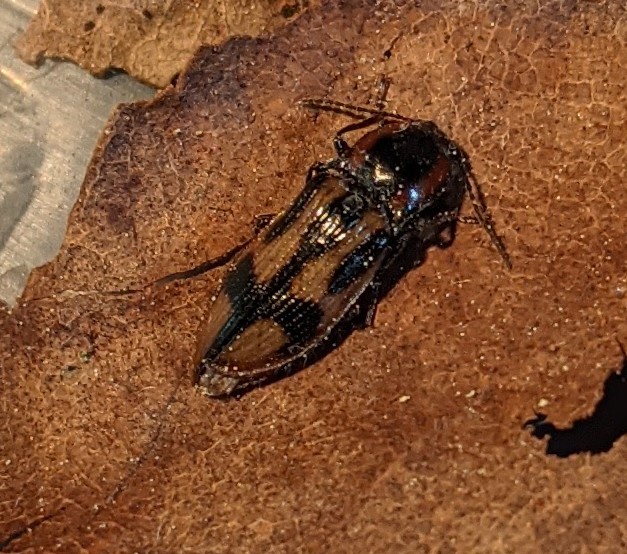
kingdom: Animalia
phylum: Arthropoda
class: Insecta
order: Coleoptera
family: Elateridae
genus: Selatosomus
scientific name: Selatosomus pulcher
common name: Noble click beetle
